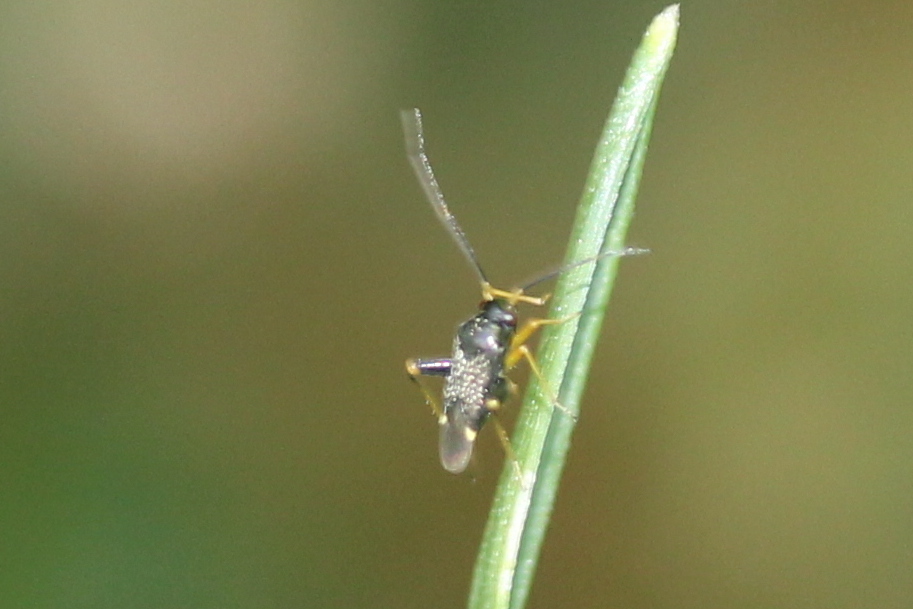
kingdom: Animalia
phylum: Arthropoda
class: Insecta
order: Hemiptera
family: Miridae
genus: Microtechnites
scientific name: Microtechnites bractatus
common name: Garden fleahopper
